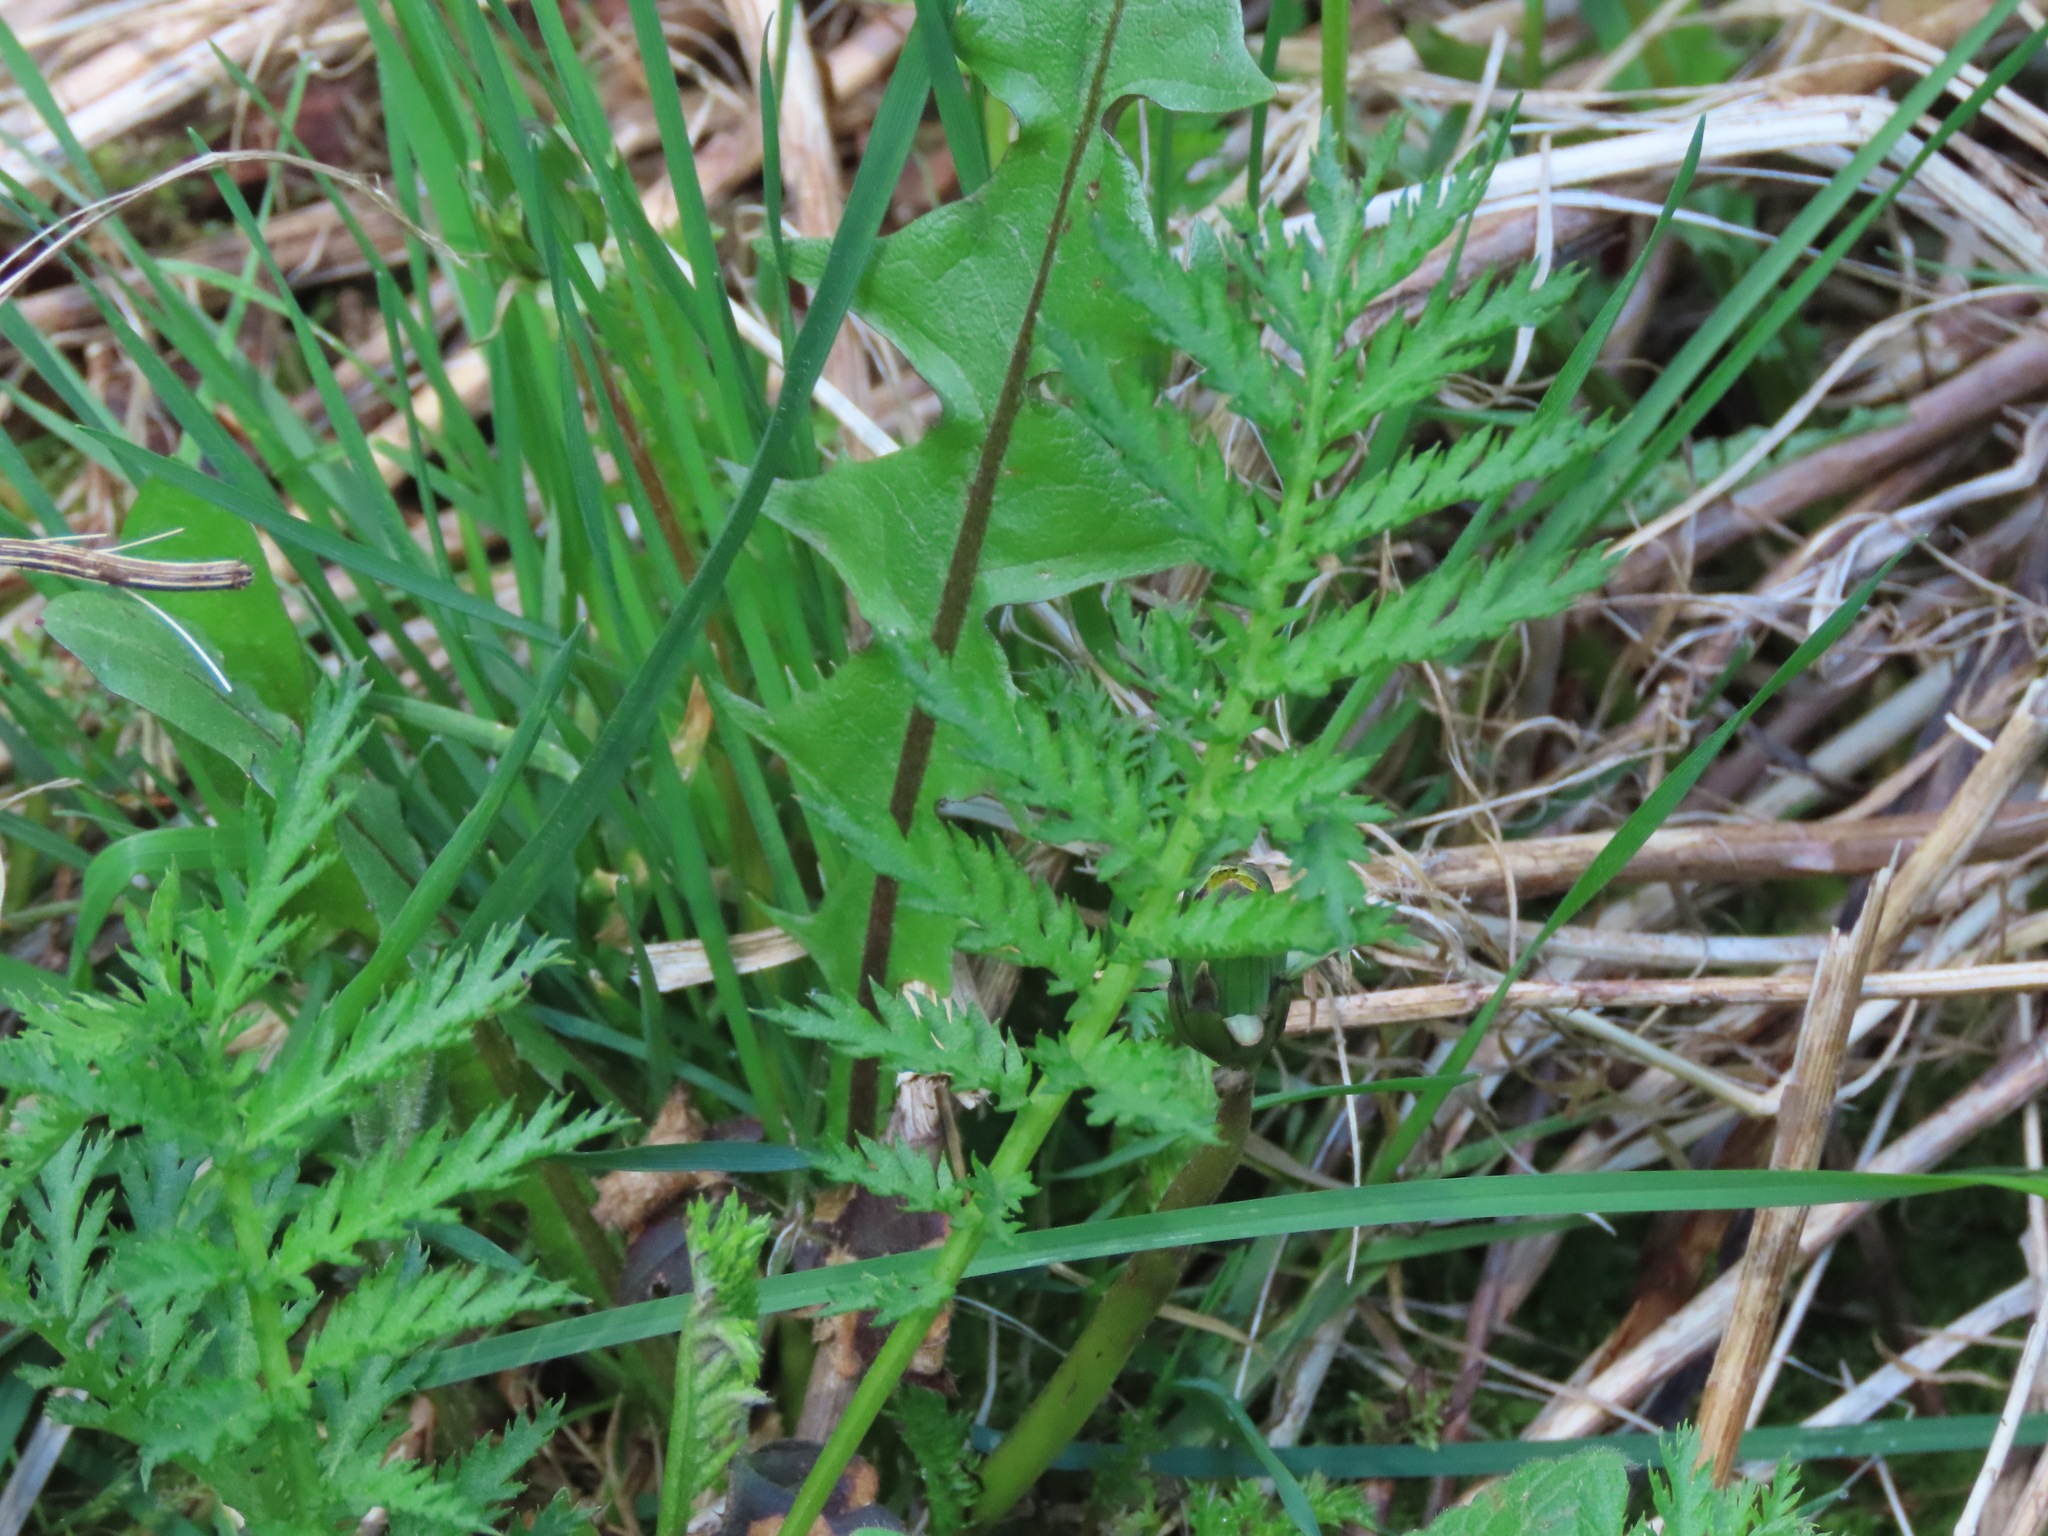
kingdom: Plantae
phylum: Tracheophyta
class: Magnoliopsida
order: Asterales
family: Asteraceae
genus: Tanacetum
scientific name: Tanacetum vulgare
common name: Common tansy
